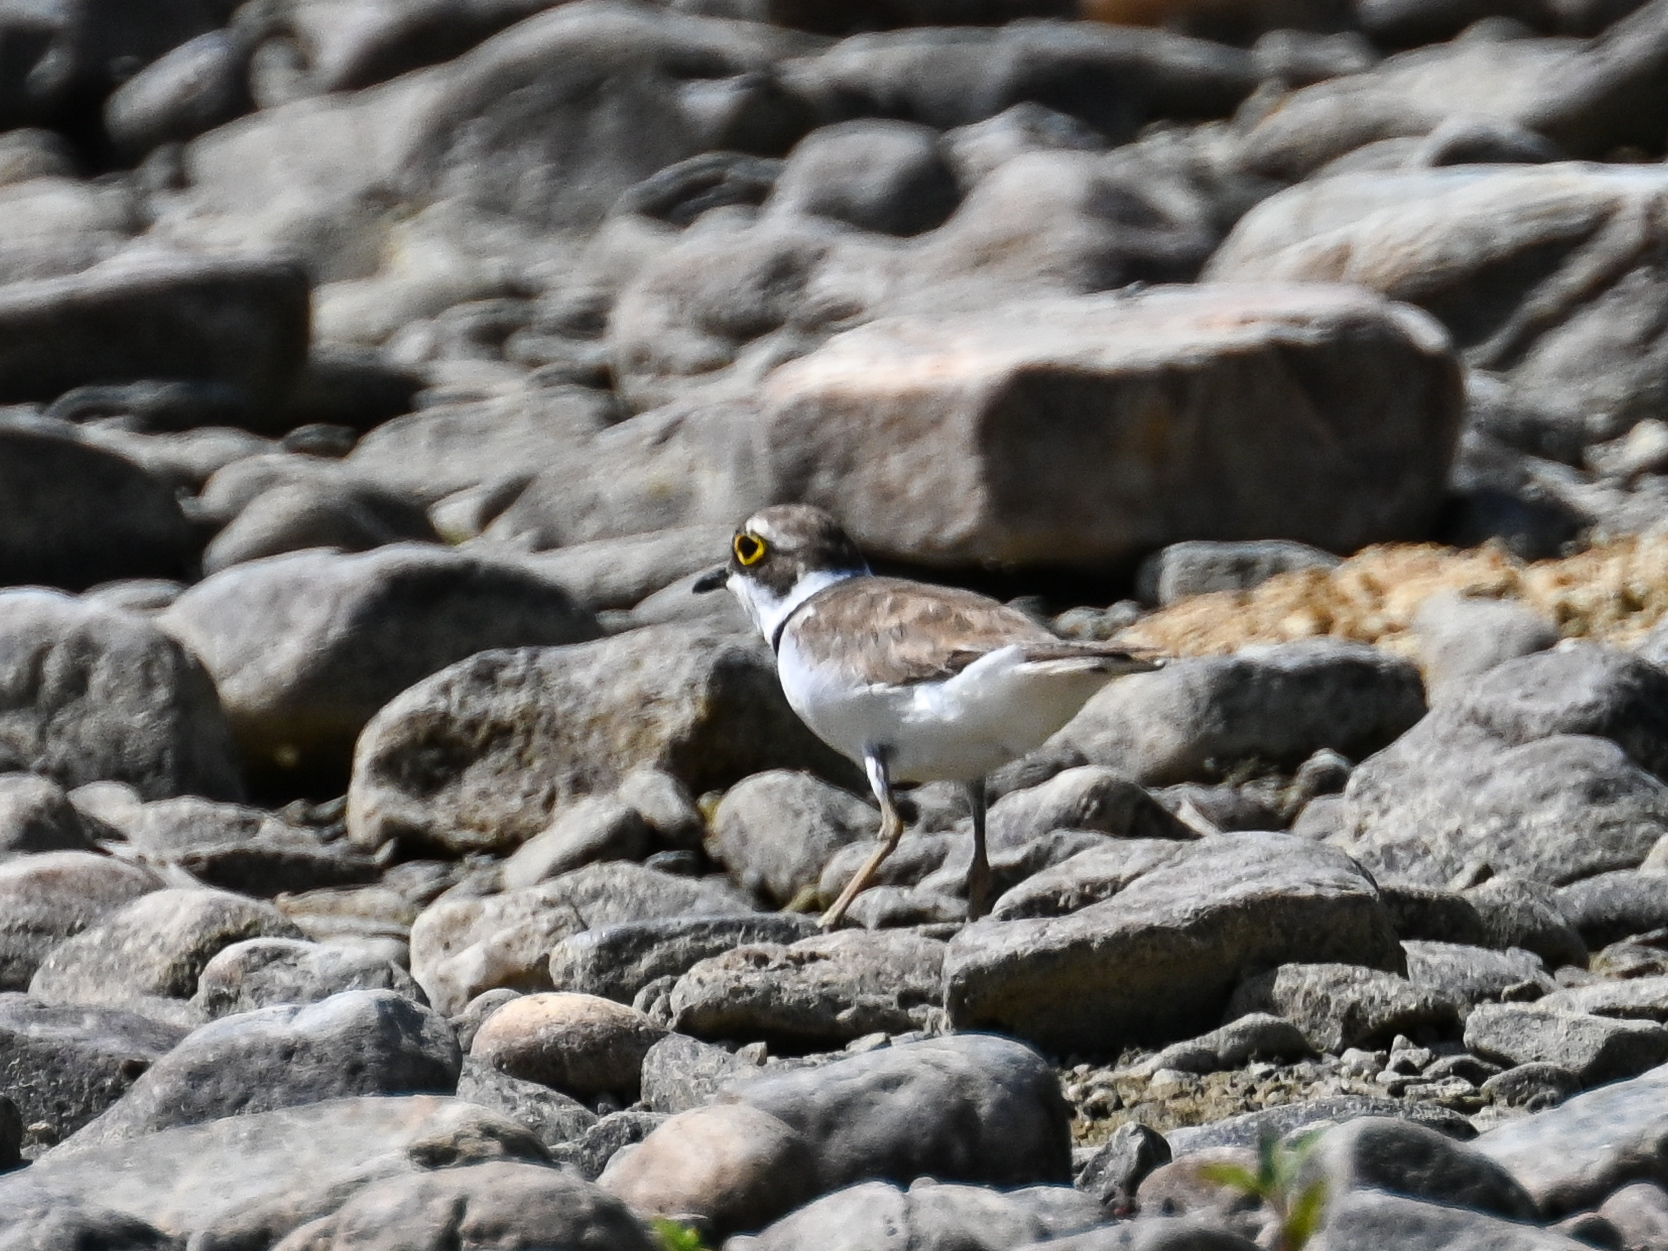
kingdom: Animalia
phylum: Chordata
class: Aves
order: Charadriiformes
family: Charadriidae
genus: Charadrius
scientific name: Charadrius dubius
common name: Little ringed plover
